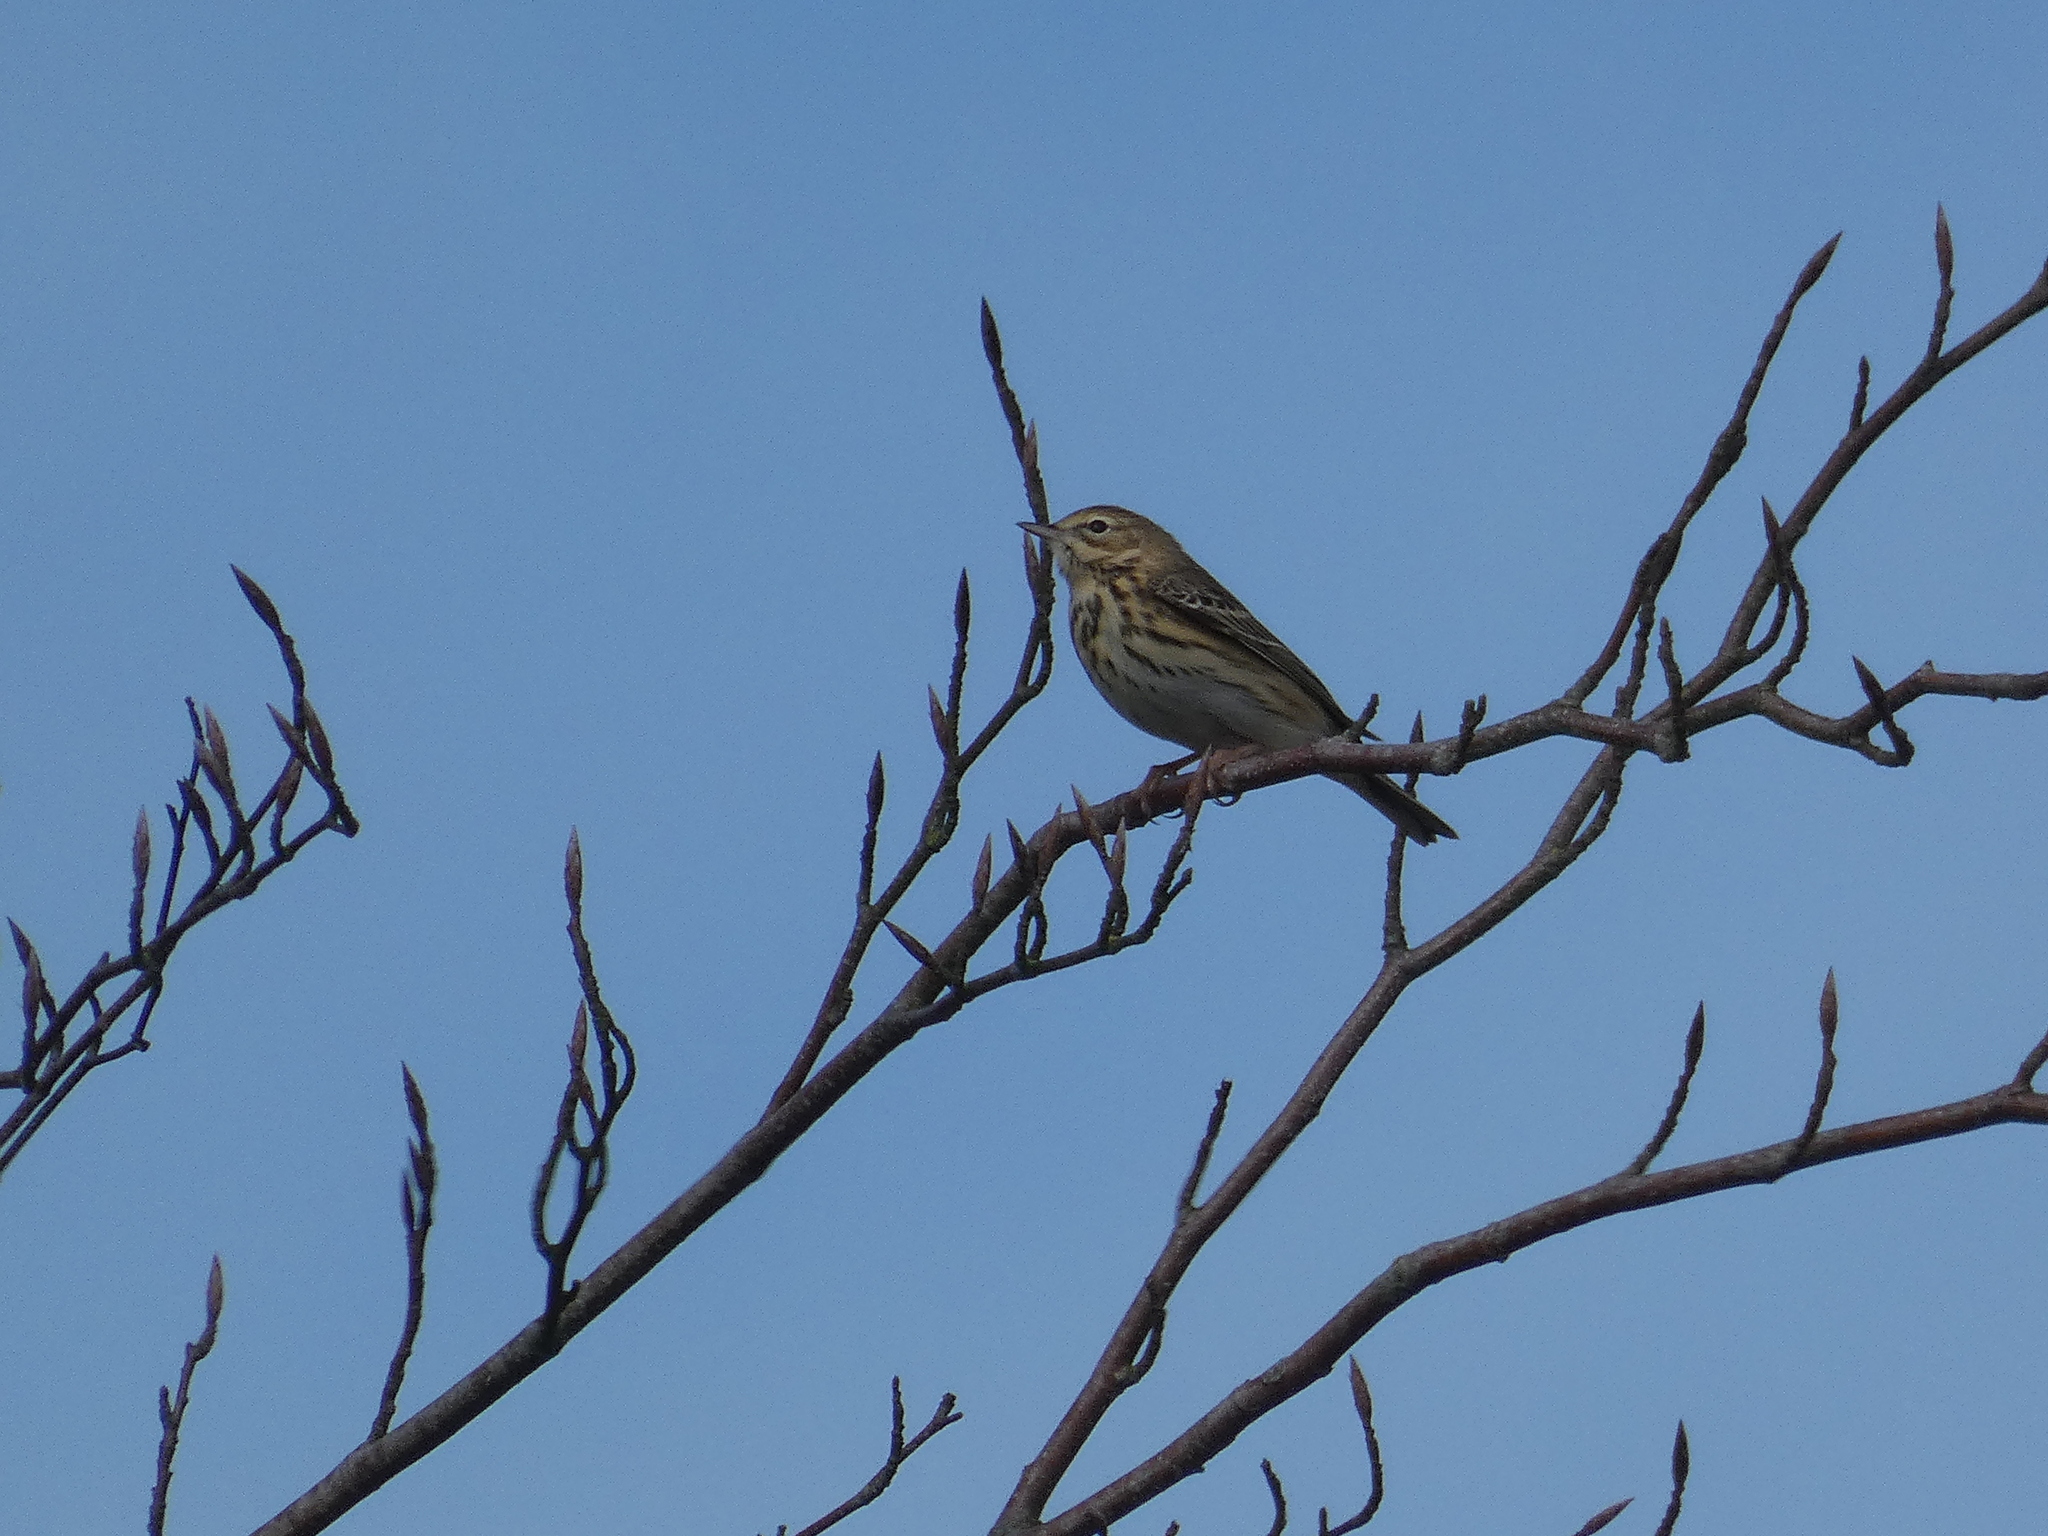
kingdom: Animalia
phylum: Chordata
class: Aves
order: Passeriformes
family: Motacillidae
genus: Anthus
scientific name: Anthus pratensis
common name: Meadow pipit
